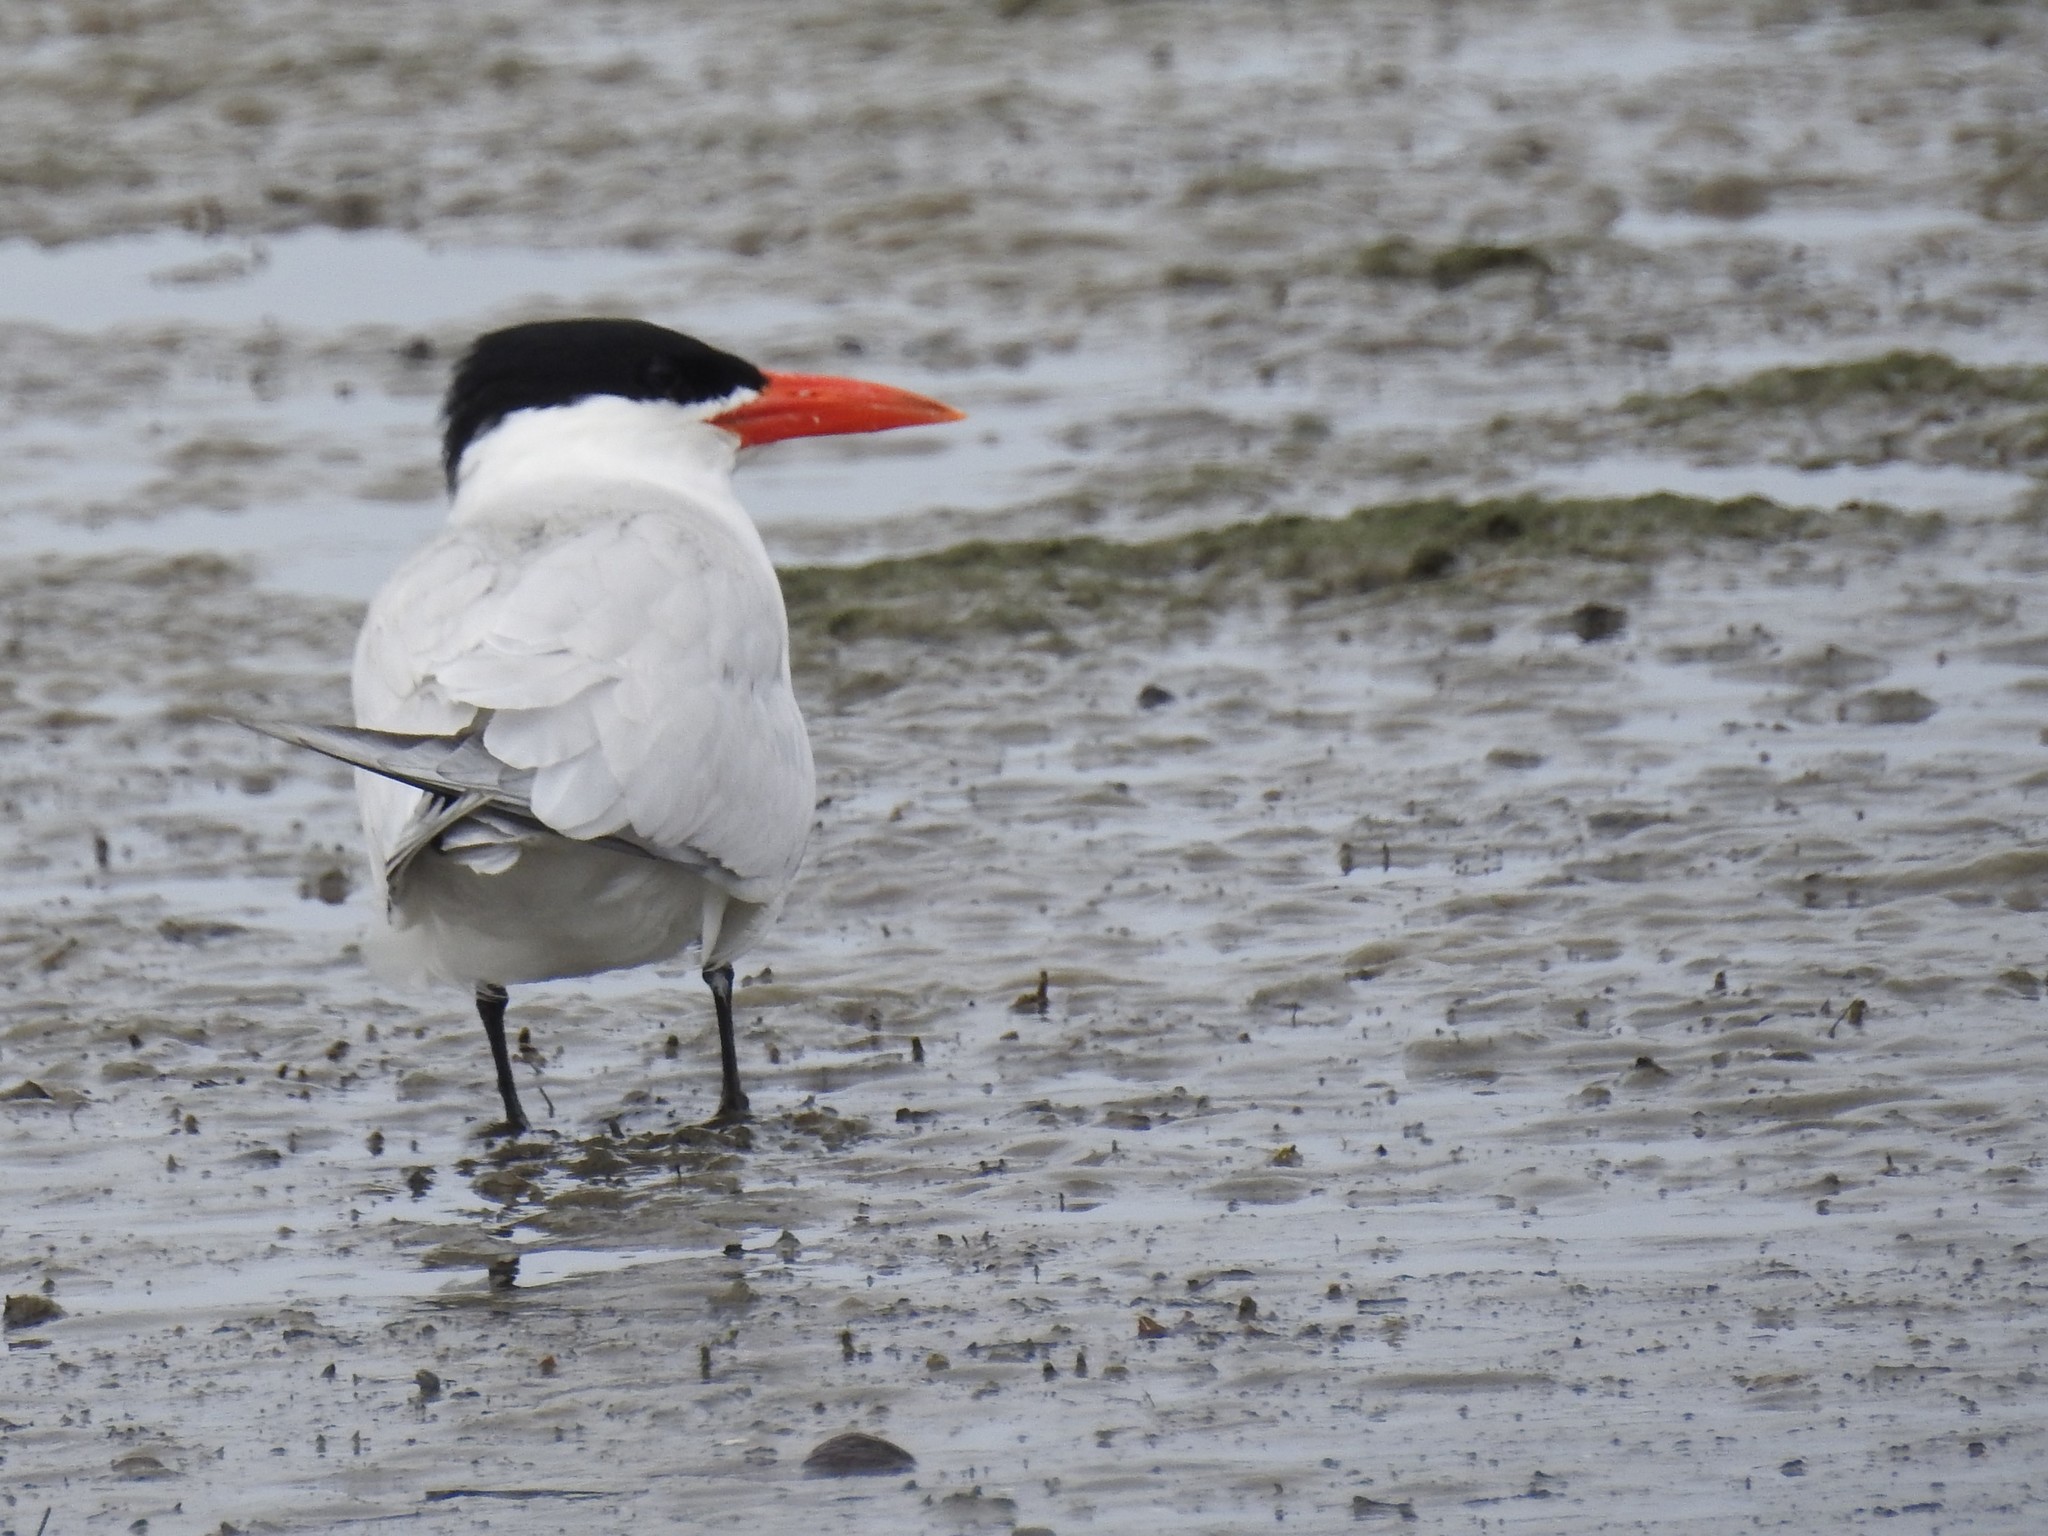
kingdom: Animalia
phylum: Chordata
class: Aves
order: Charadriiformes
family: Laridae
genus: Hydroprogne
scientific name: Hydroprogne caspia
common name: Caspian tern
